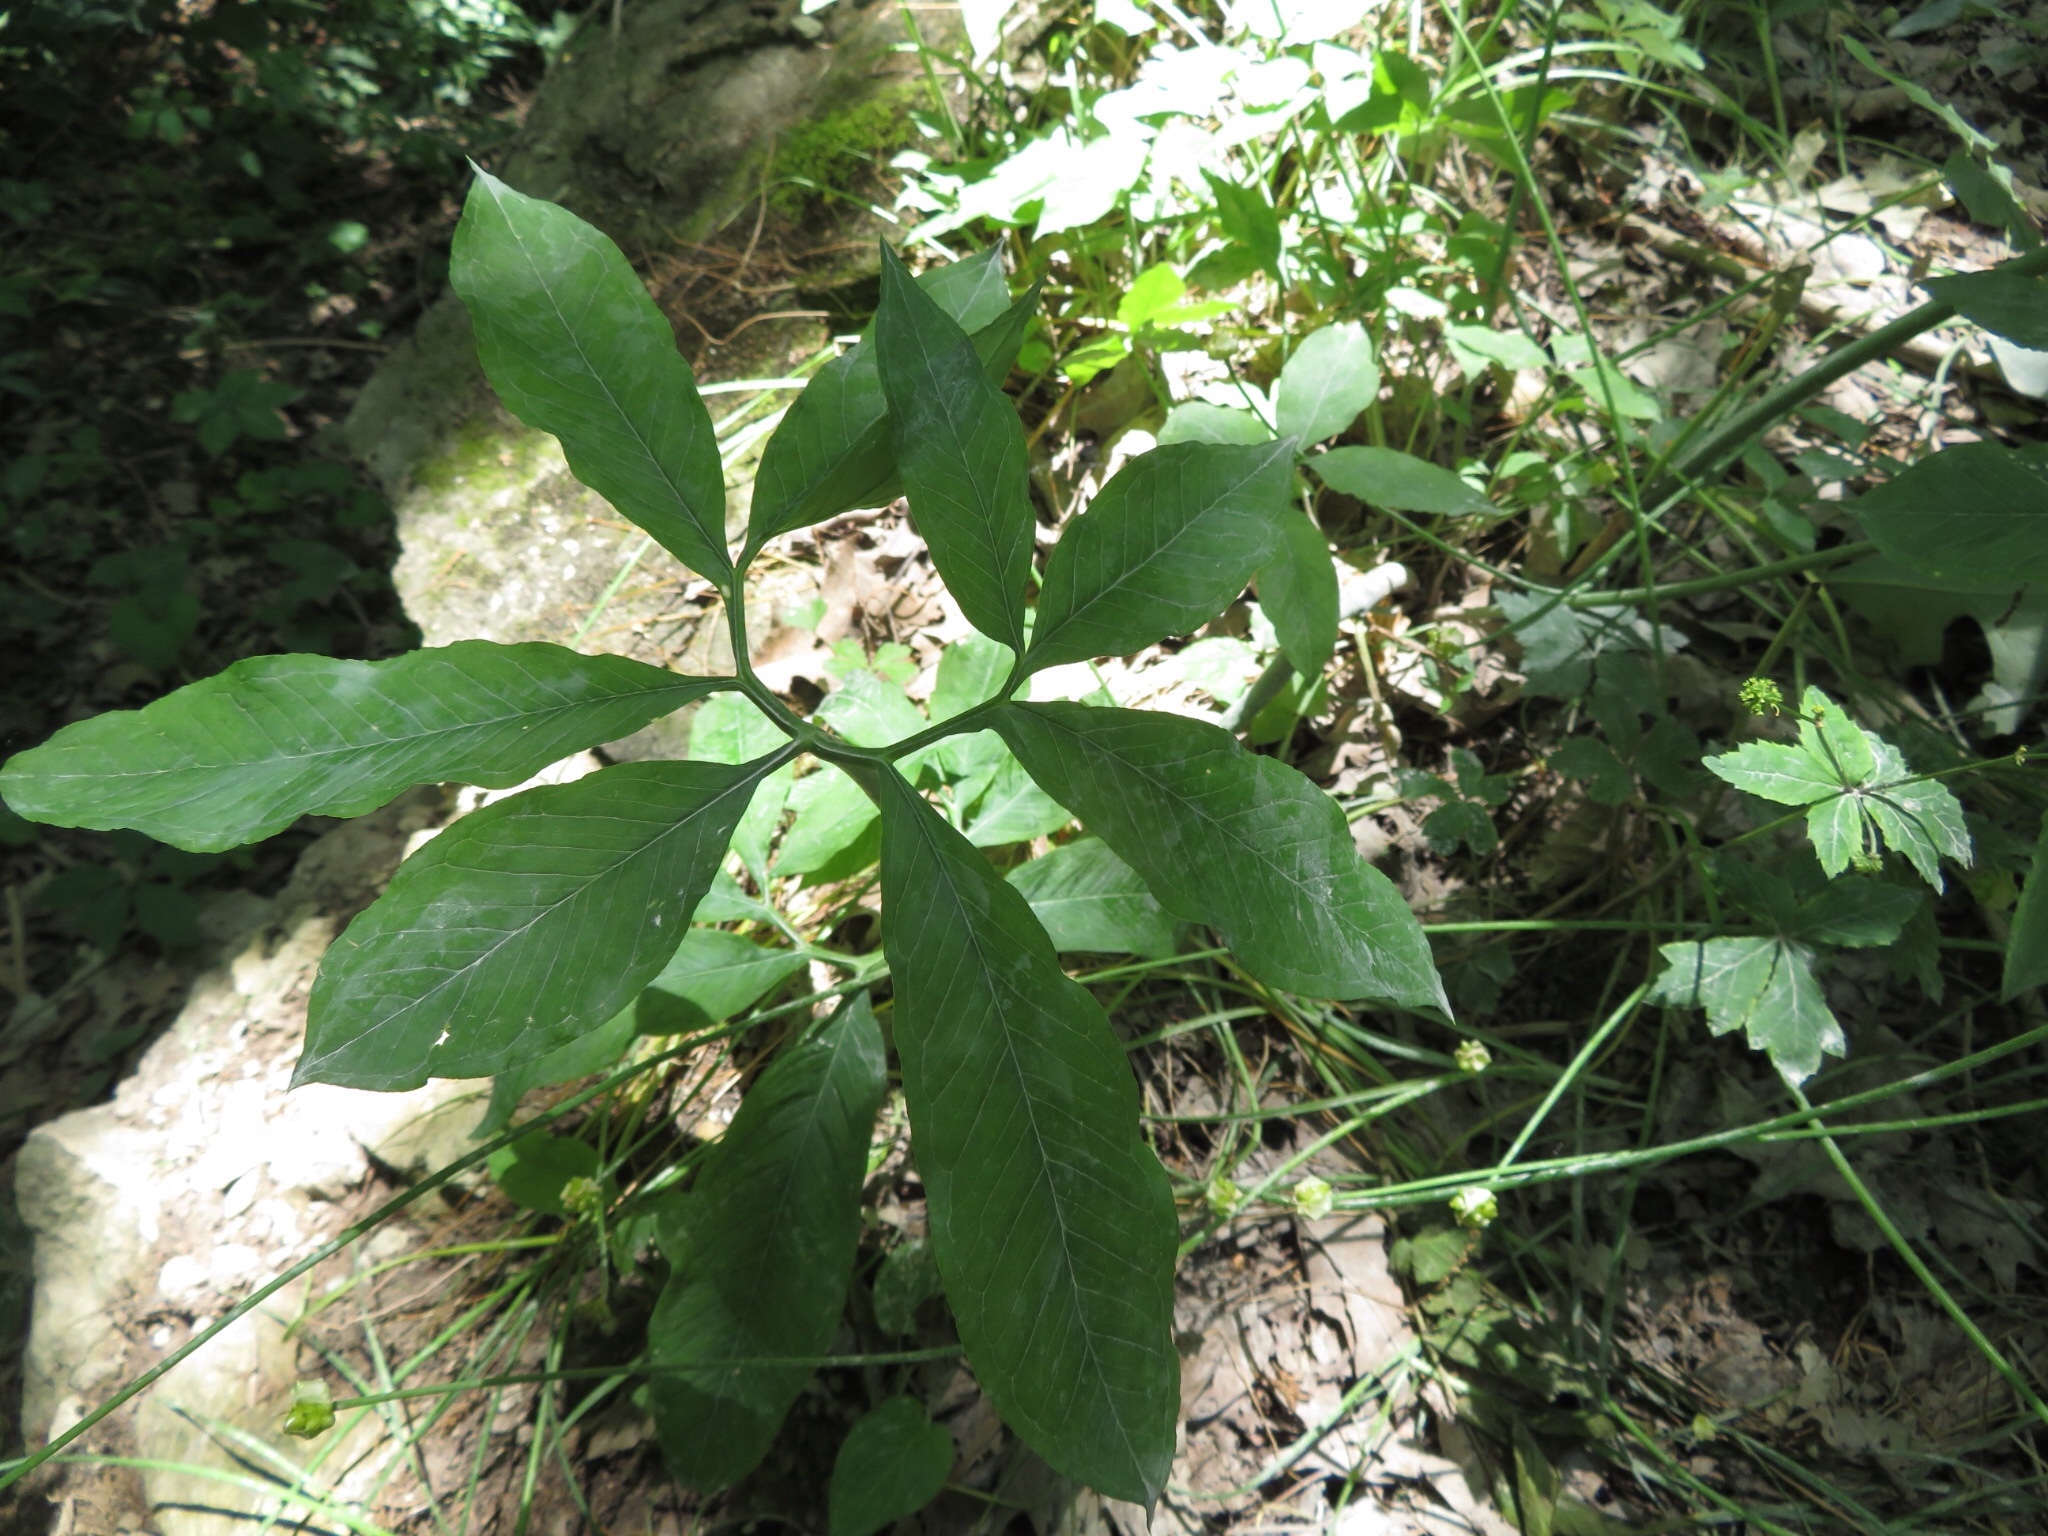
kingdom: Plantae
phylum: Tracheophyta
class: Liliopsida
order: Alismatales
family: Araceae
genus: Arisaema
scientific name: Arisaema dracontium
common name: Dragon-arum
